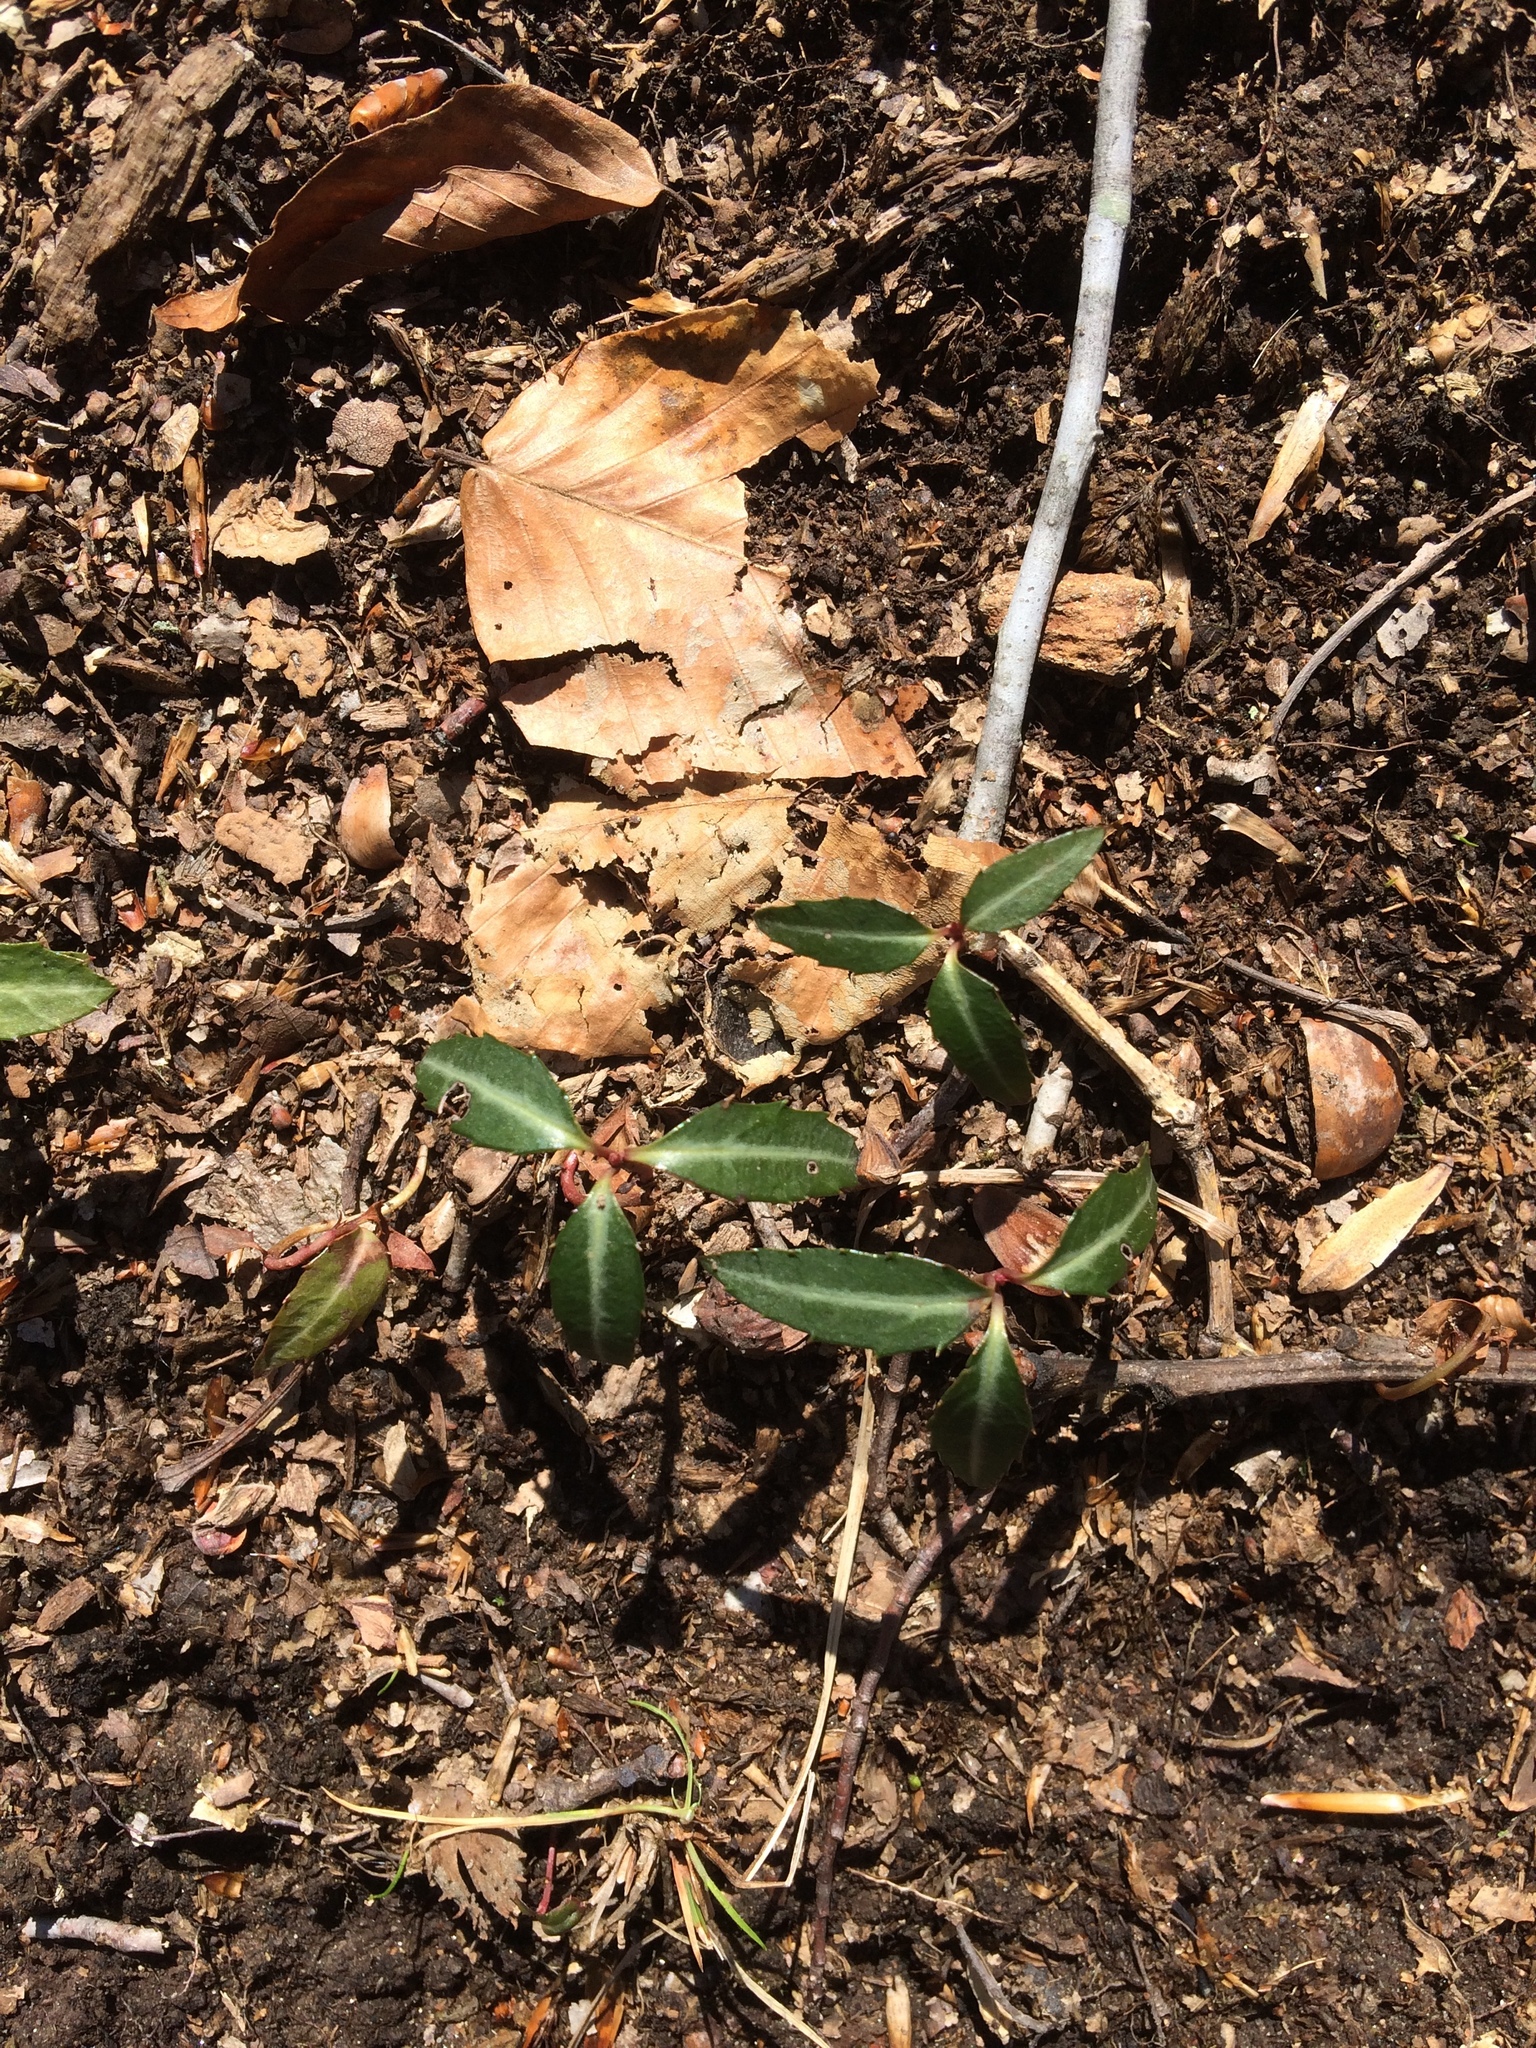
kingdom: Plantae
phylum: Tracheophyta
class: Magnoliopsida
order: Ericales
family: Ericaceae
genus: Chimaphila
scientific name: Chimaphila maculata
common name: Spotted pipsissewa
